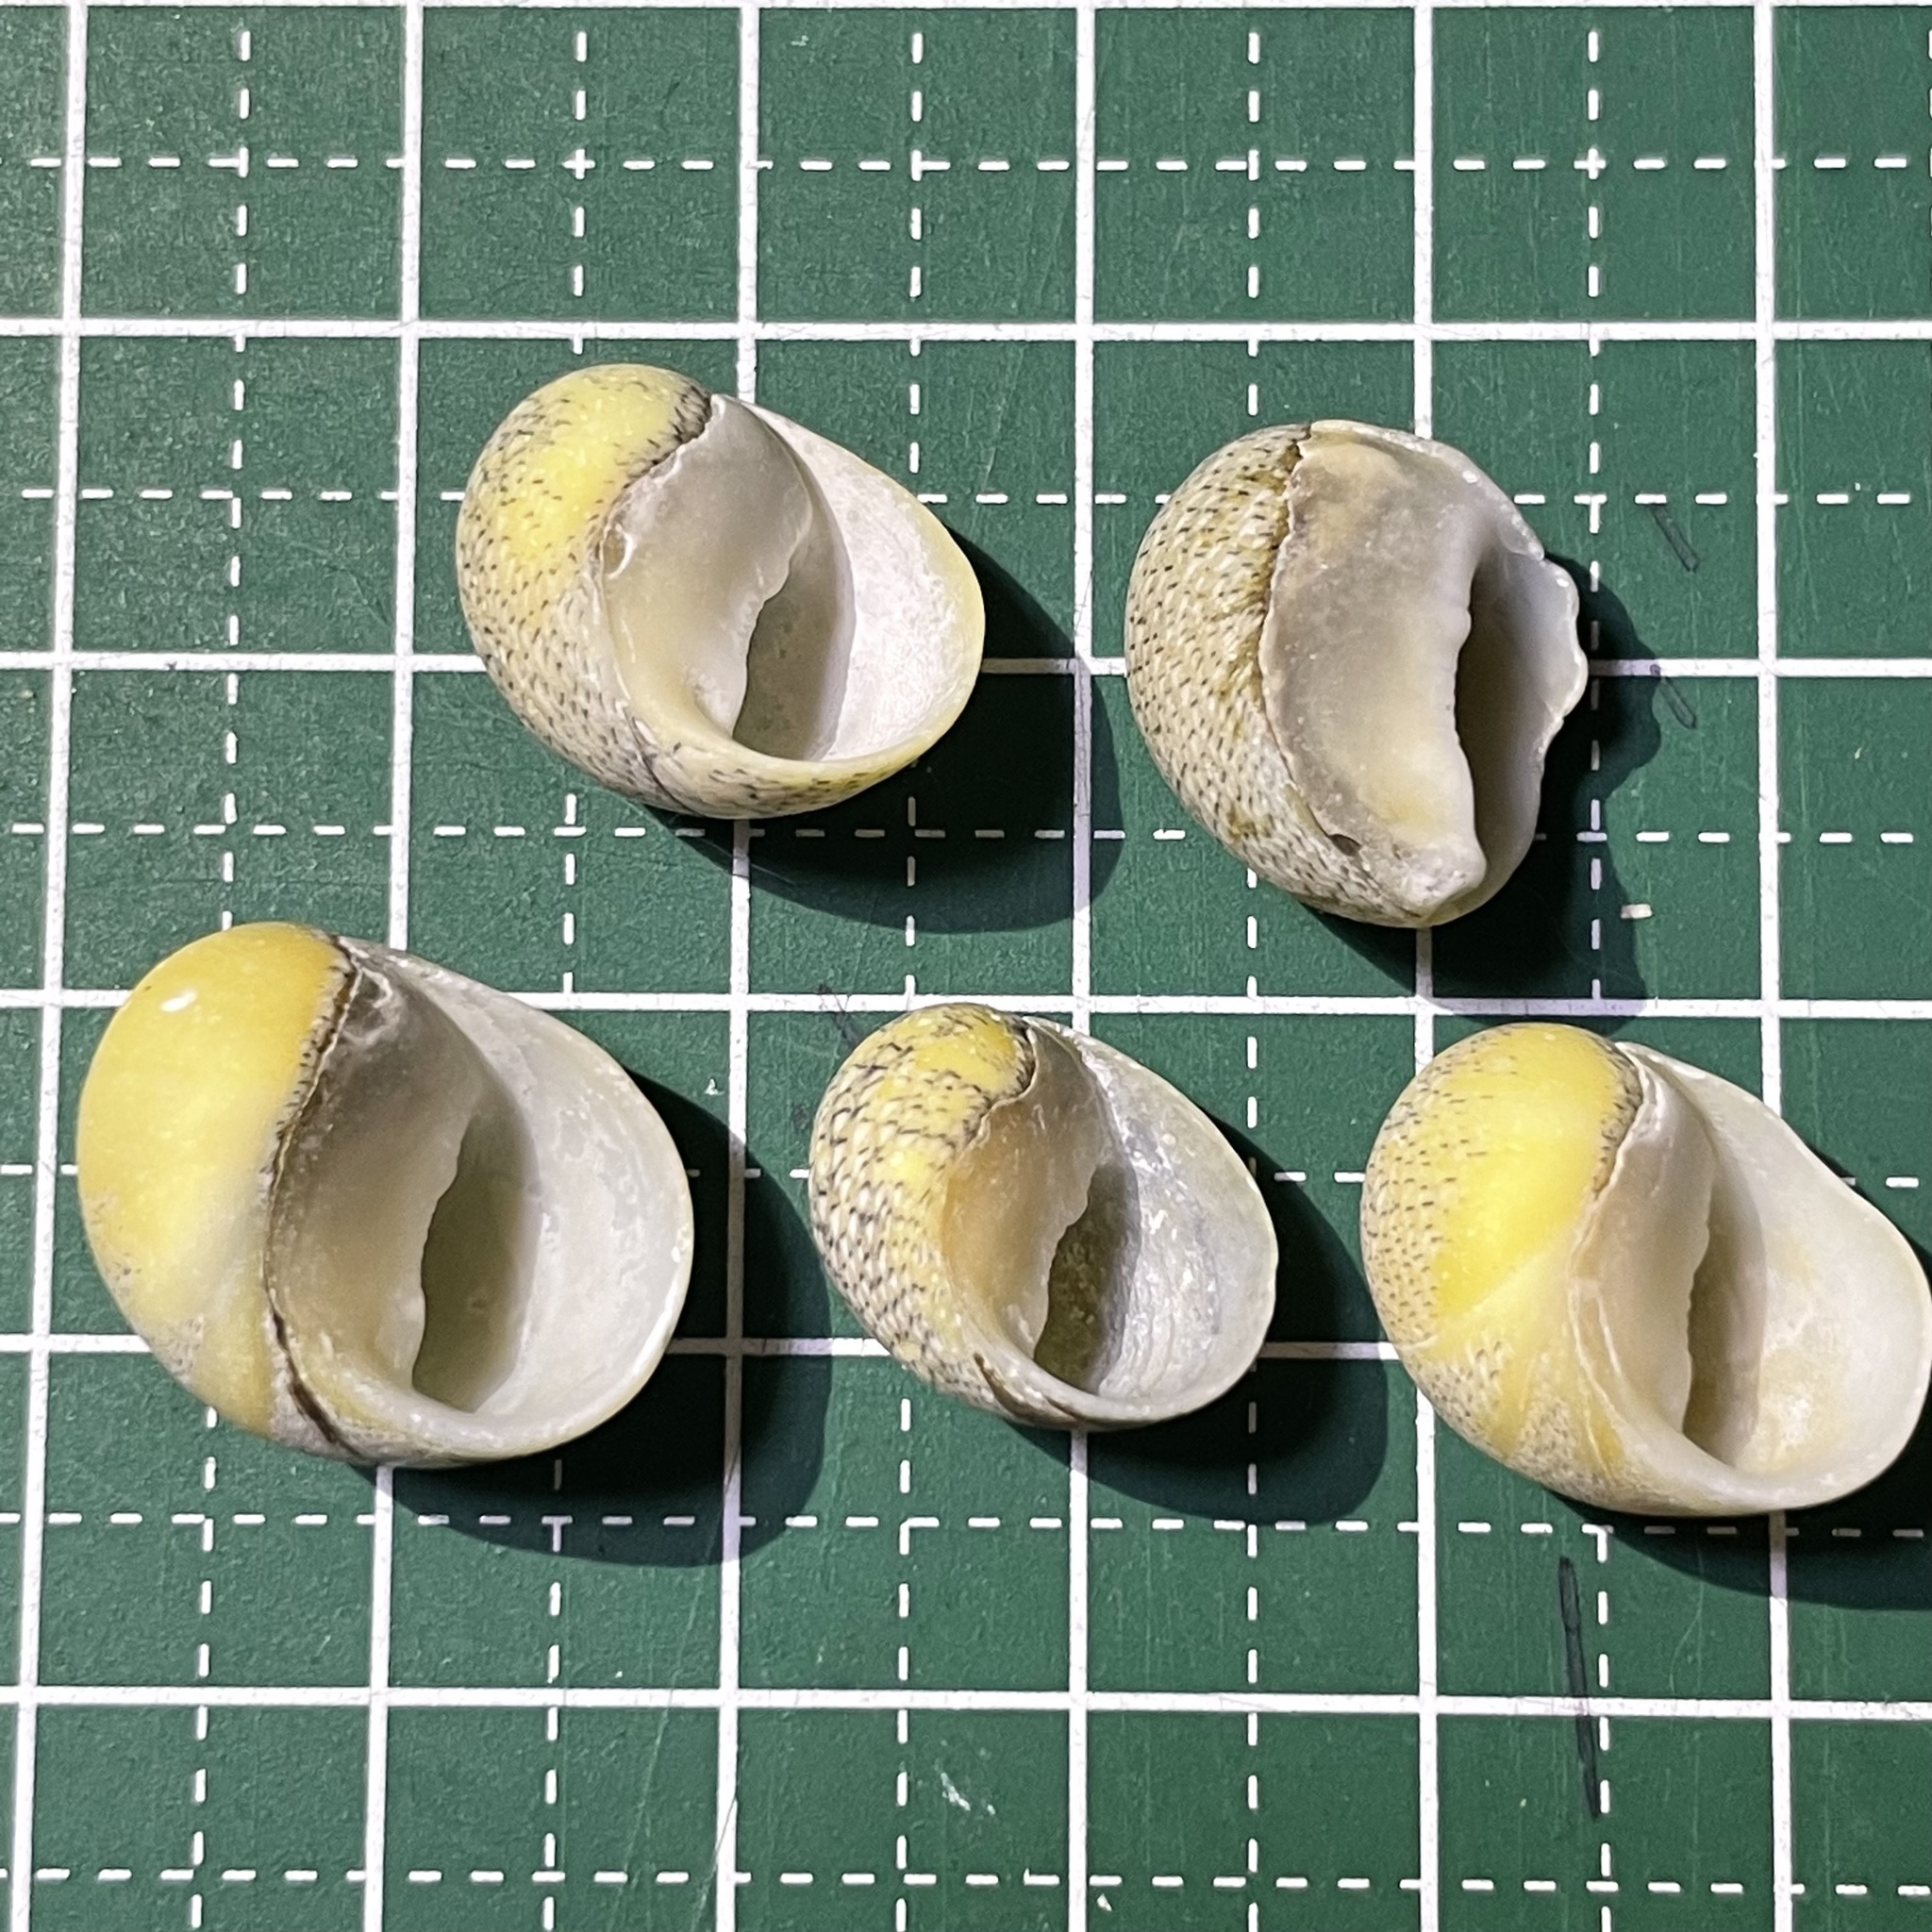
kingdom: Animalia
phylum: Mollusca
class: Gastropoda
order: Cycloneritida
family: Neritidae
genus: Clithon
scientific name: Clithon retropictum
